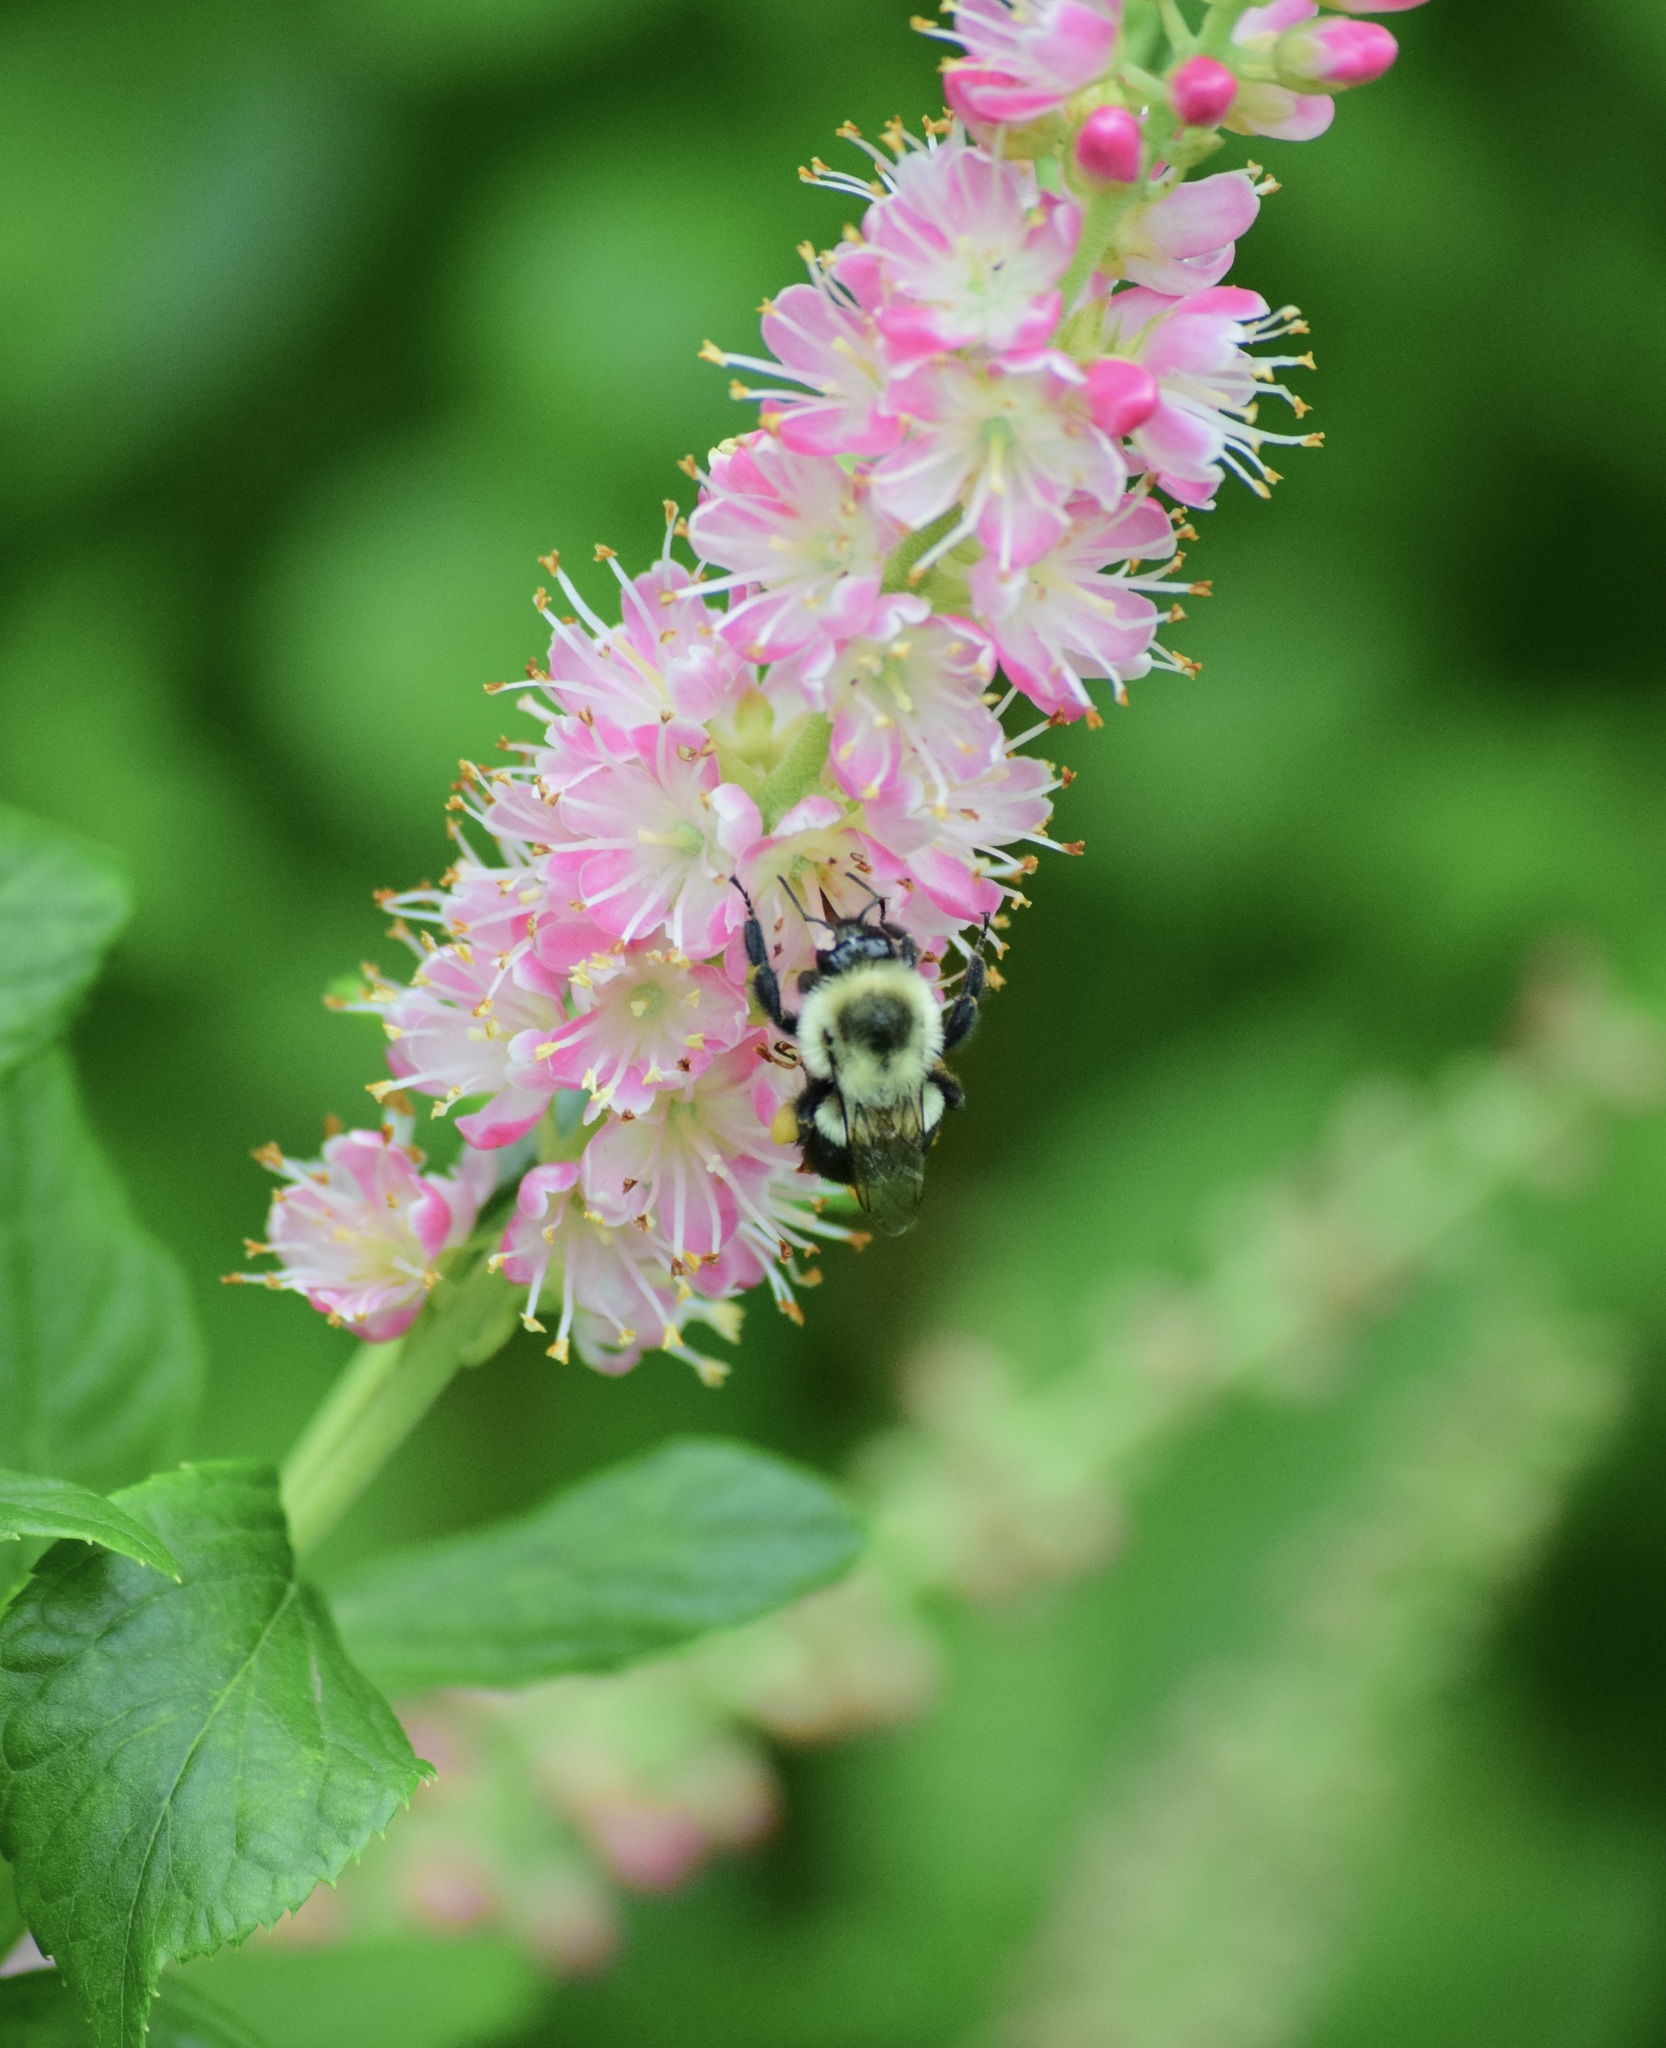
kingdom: Animalia
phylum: Arthropoda
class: Insecta
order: Hymenoptera
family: Apidae
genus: Bombus
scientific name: Bombus impatiens
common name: Common eastern bumble bee
